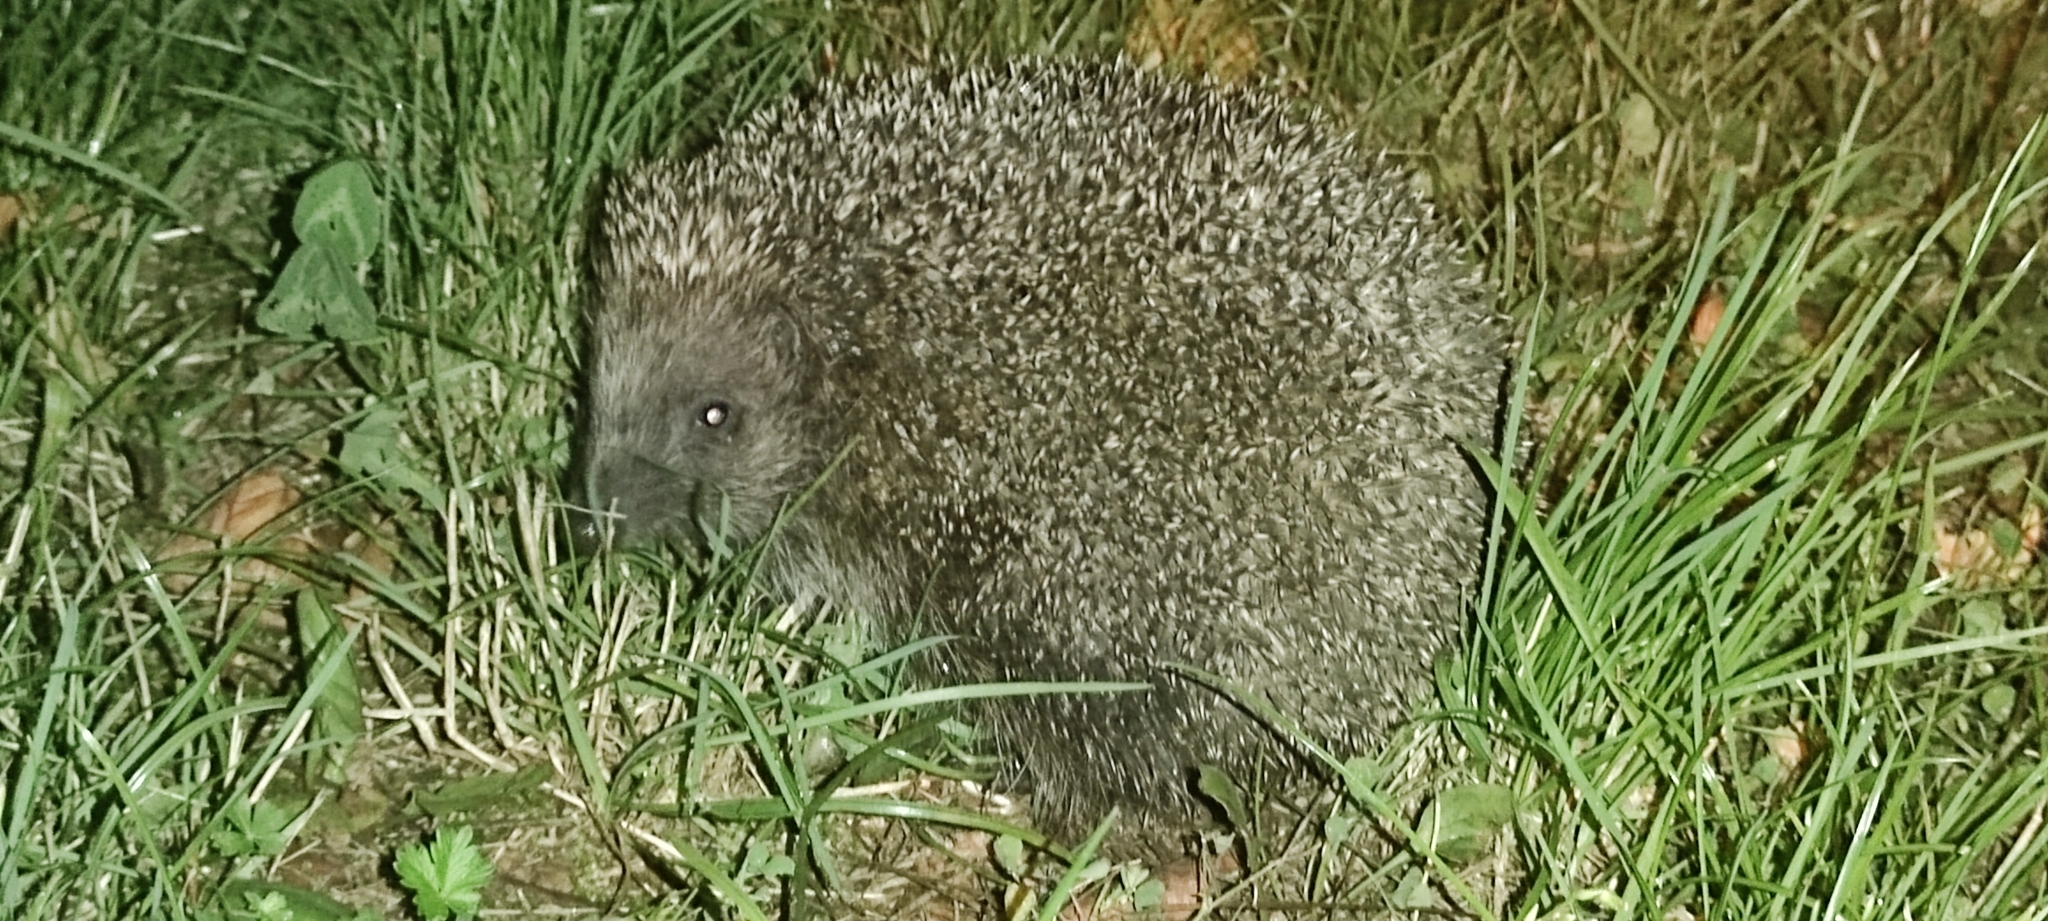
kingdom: Animalia
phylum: Chordata
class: Mammalia
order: Erinaceomorpha
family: Erinaceidae
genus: Erinaceus
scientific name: Erinaceus roumanicus
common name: Northern white-breasted hedgehog
